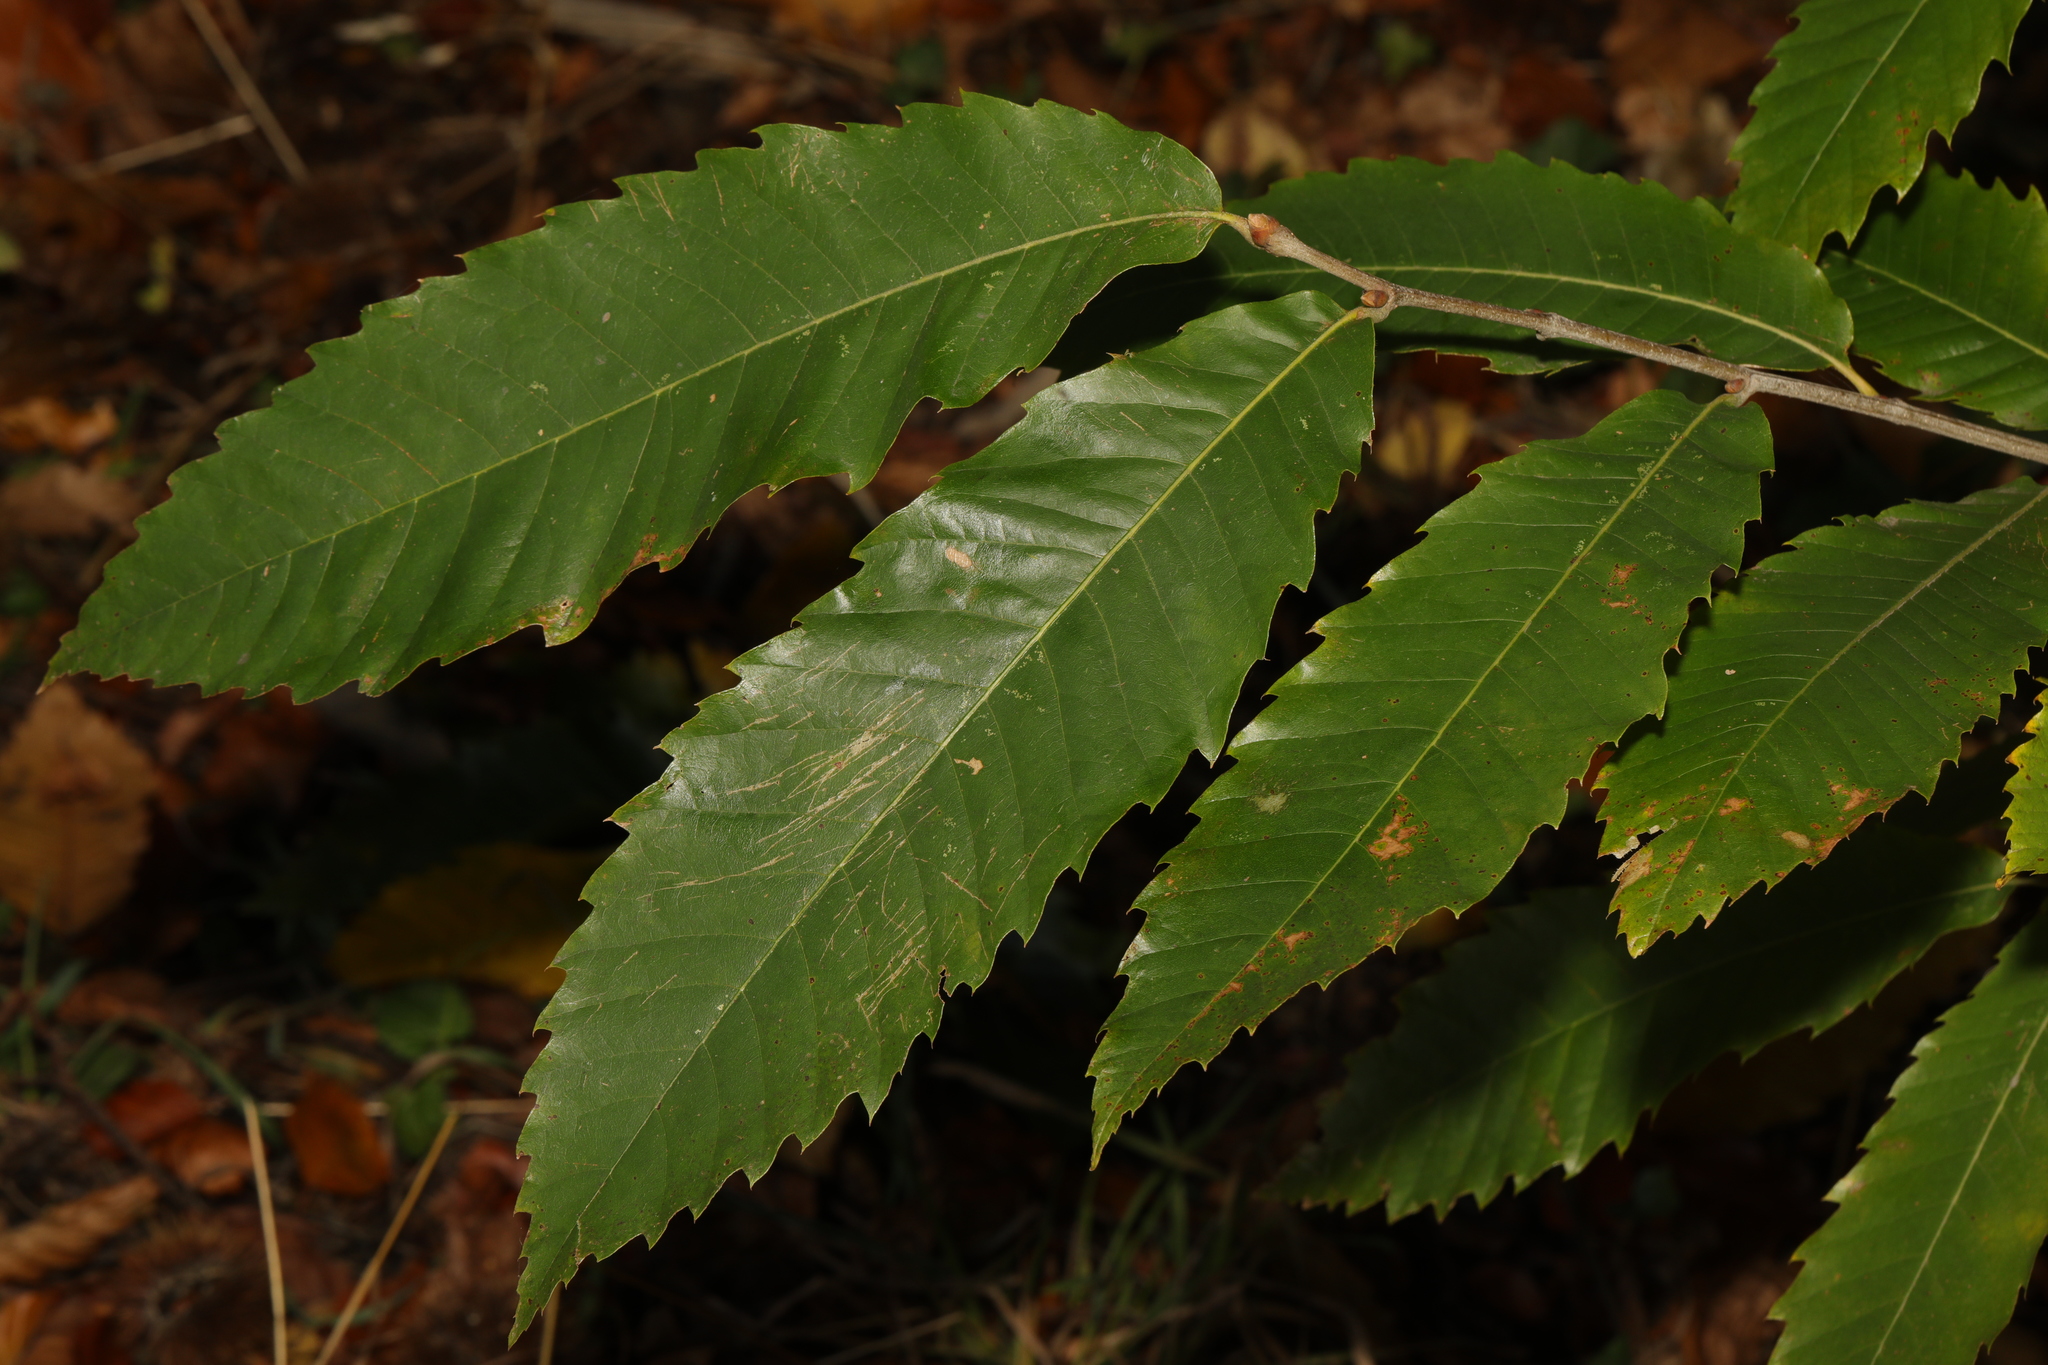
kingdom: Plantae
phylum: Tracheophyta
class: Magnoliopsida
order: Fagales
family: Fagaceae
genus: Castanea
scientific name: Castanea sativa
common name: Sweet chestnut
